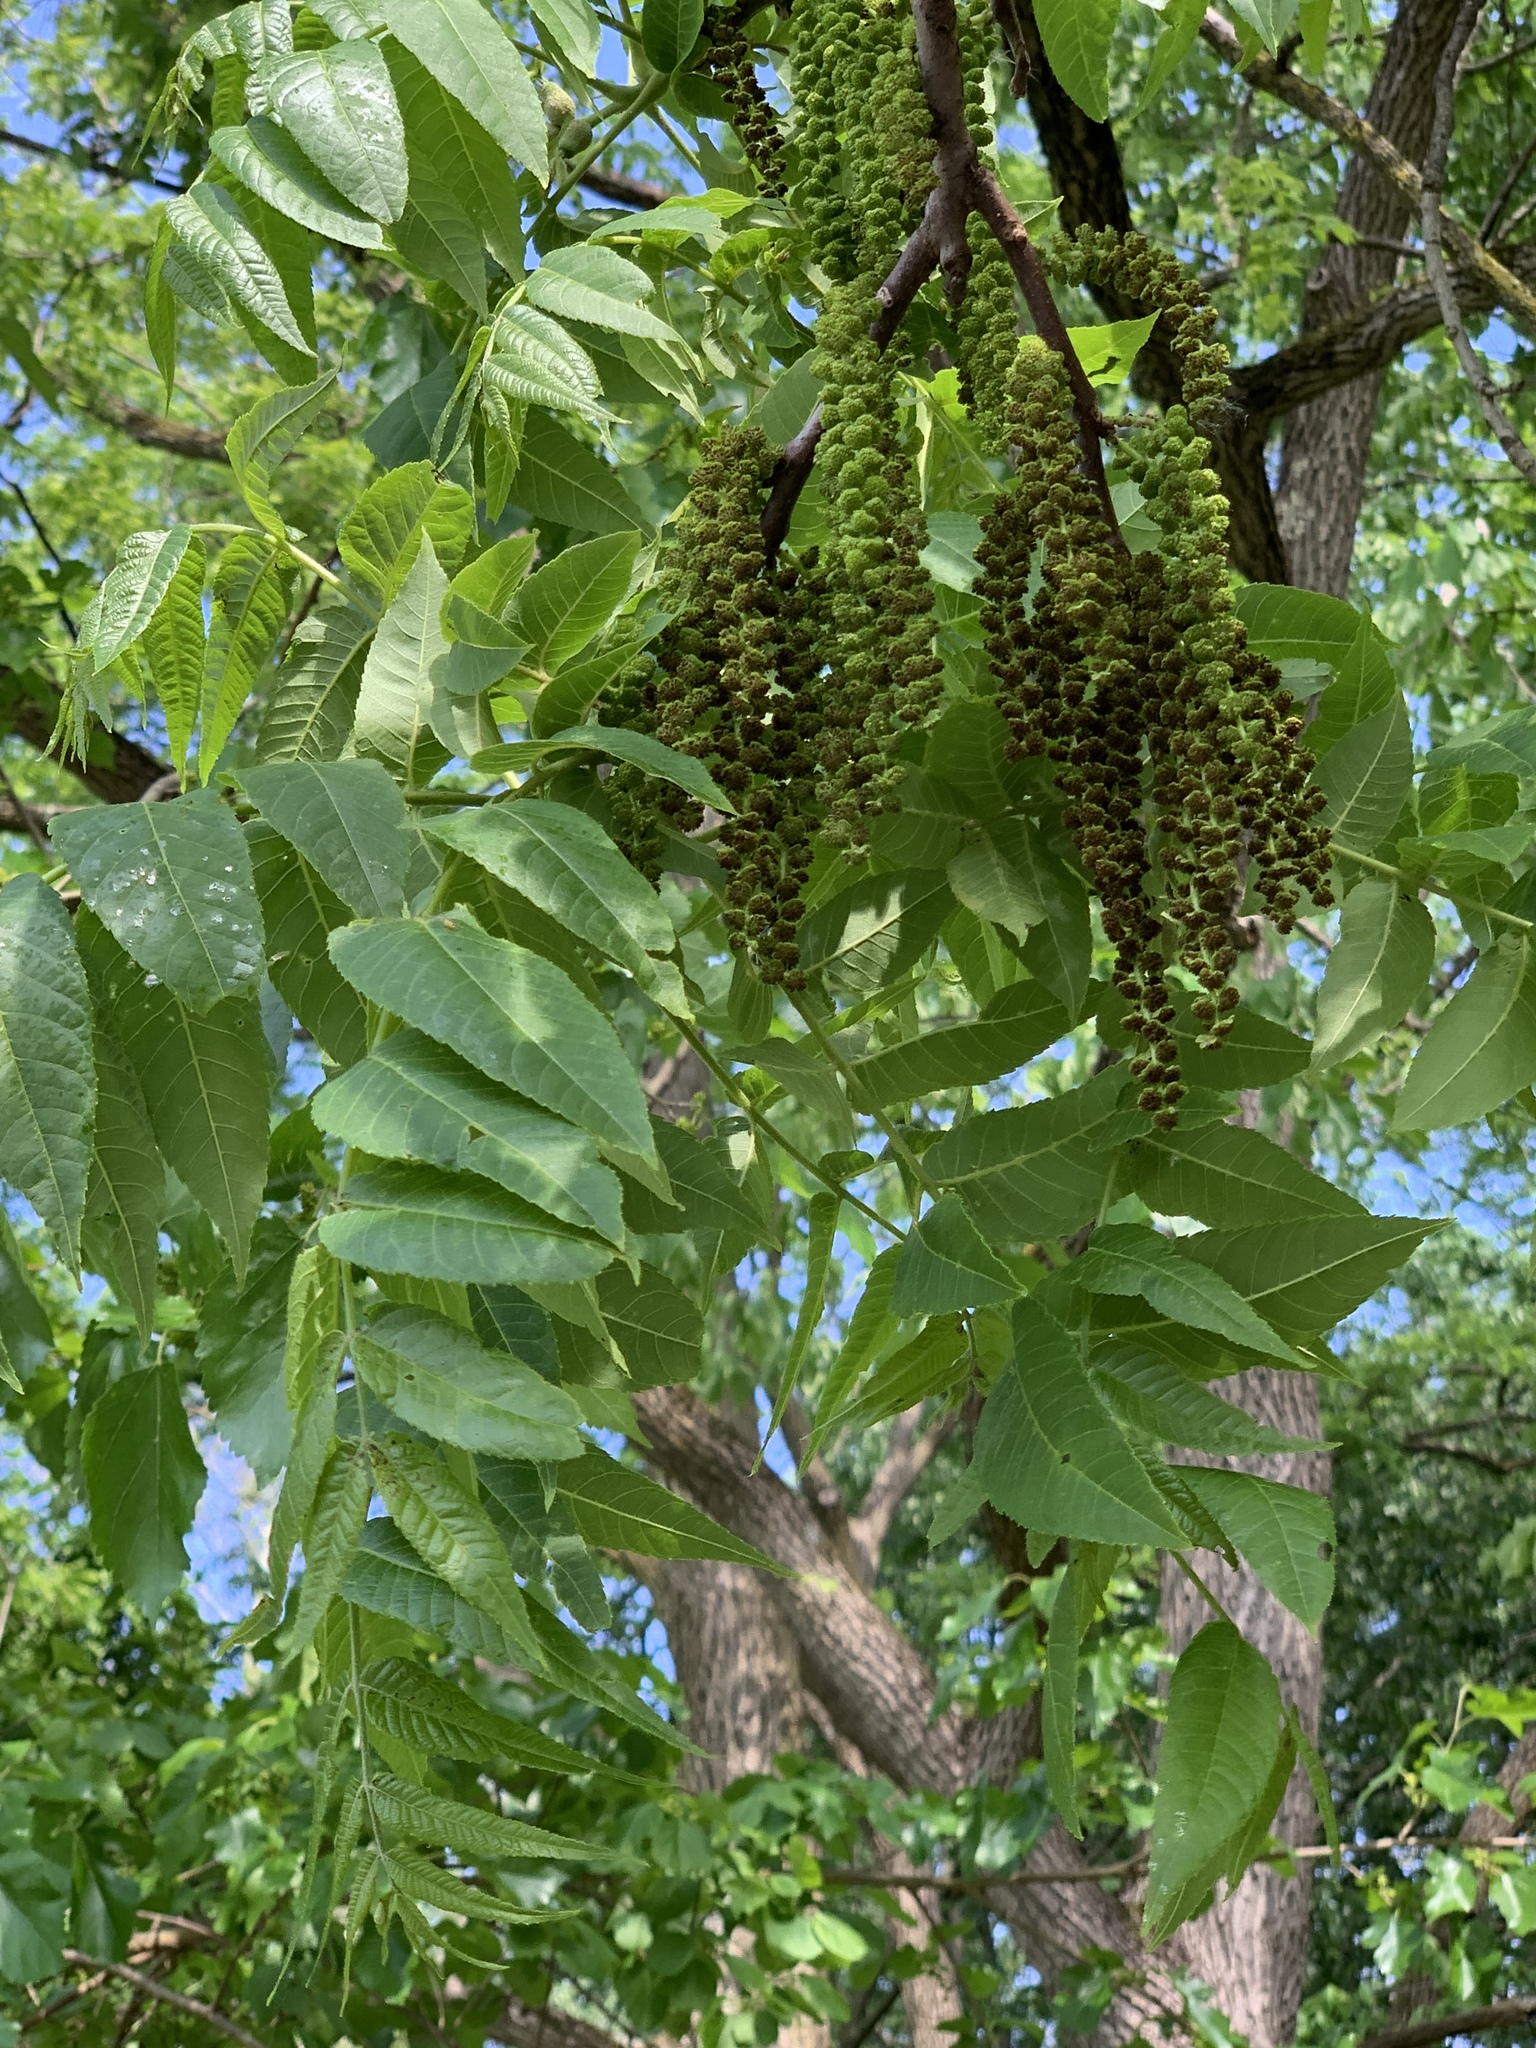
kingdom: Plantae
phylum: Tracheophyta
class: Magnoliopsida
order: Fagales
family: Juglandaceae
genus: Juglans
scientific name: Juglans nigra
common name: Black walnut
